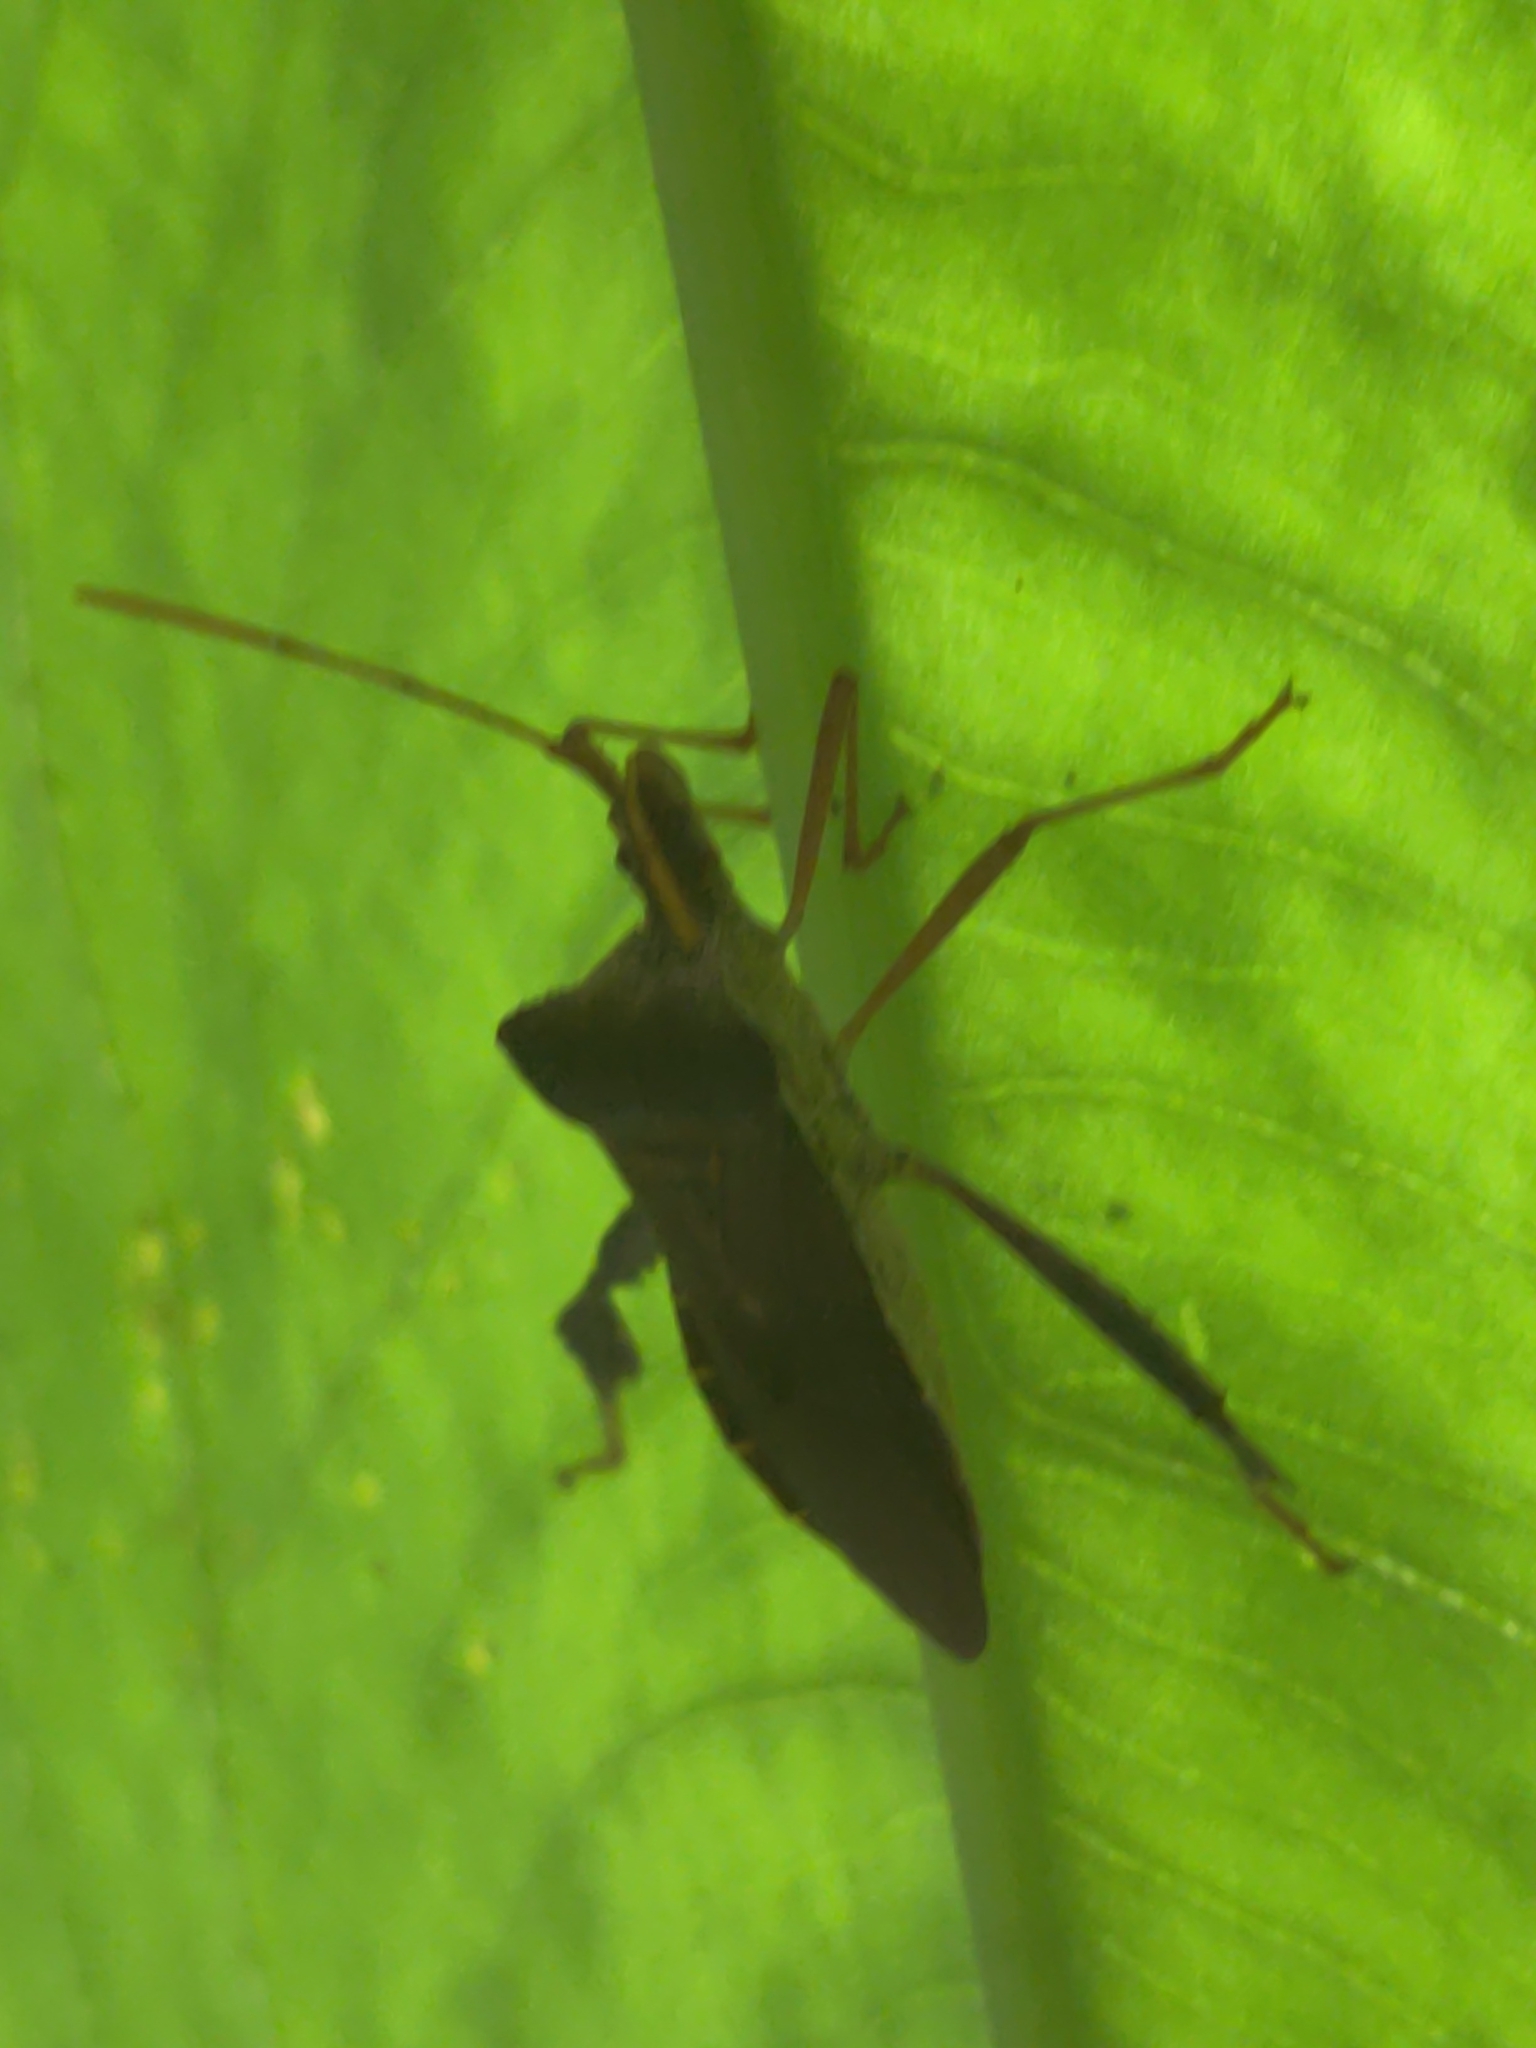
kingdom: Animalia
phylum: Arthropoda
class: Insecta
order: Hemiptera
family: Coreidae
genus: Leptoglossus
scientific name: Leptoglossus fulvicornis
